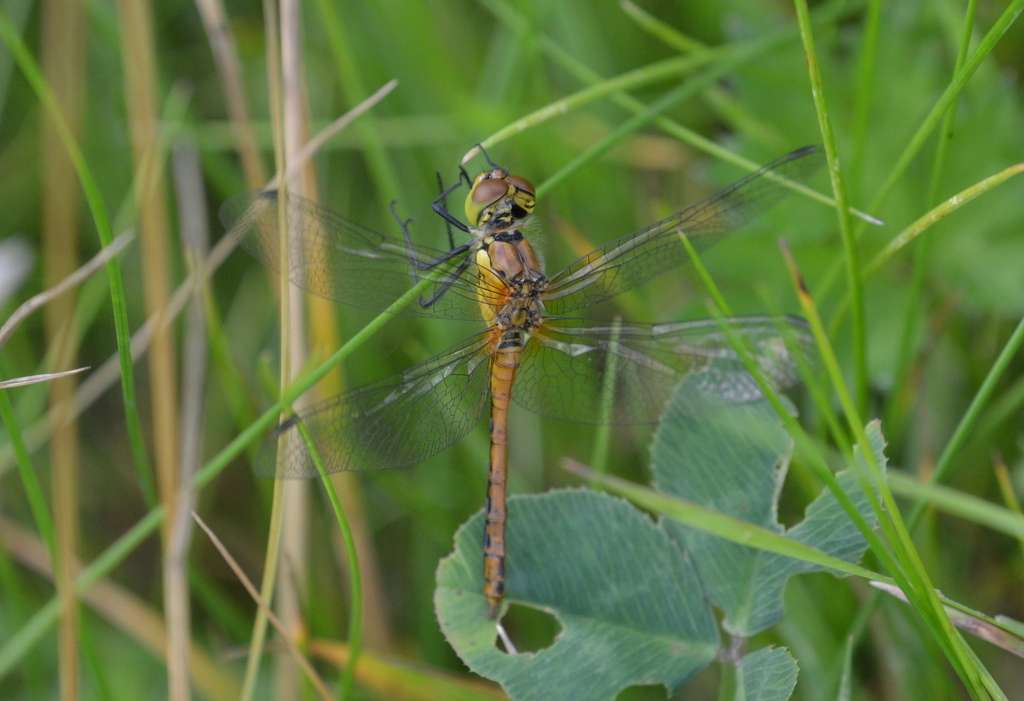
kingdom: Animalia
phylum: Arthropoda
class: Insecta
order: Odonata
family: Libellulidae
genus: Sympetrum
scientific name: Sympetrum sanguineum
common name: Ruddy darter
